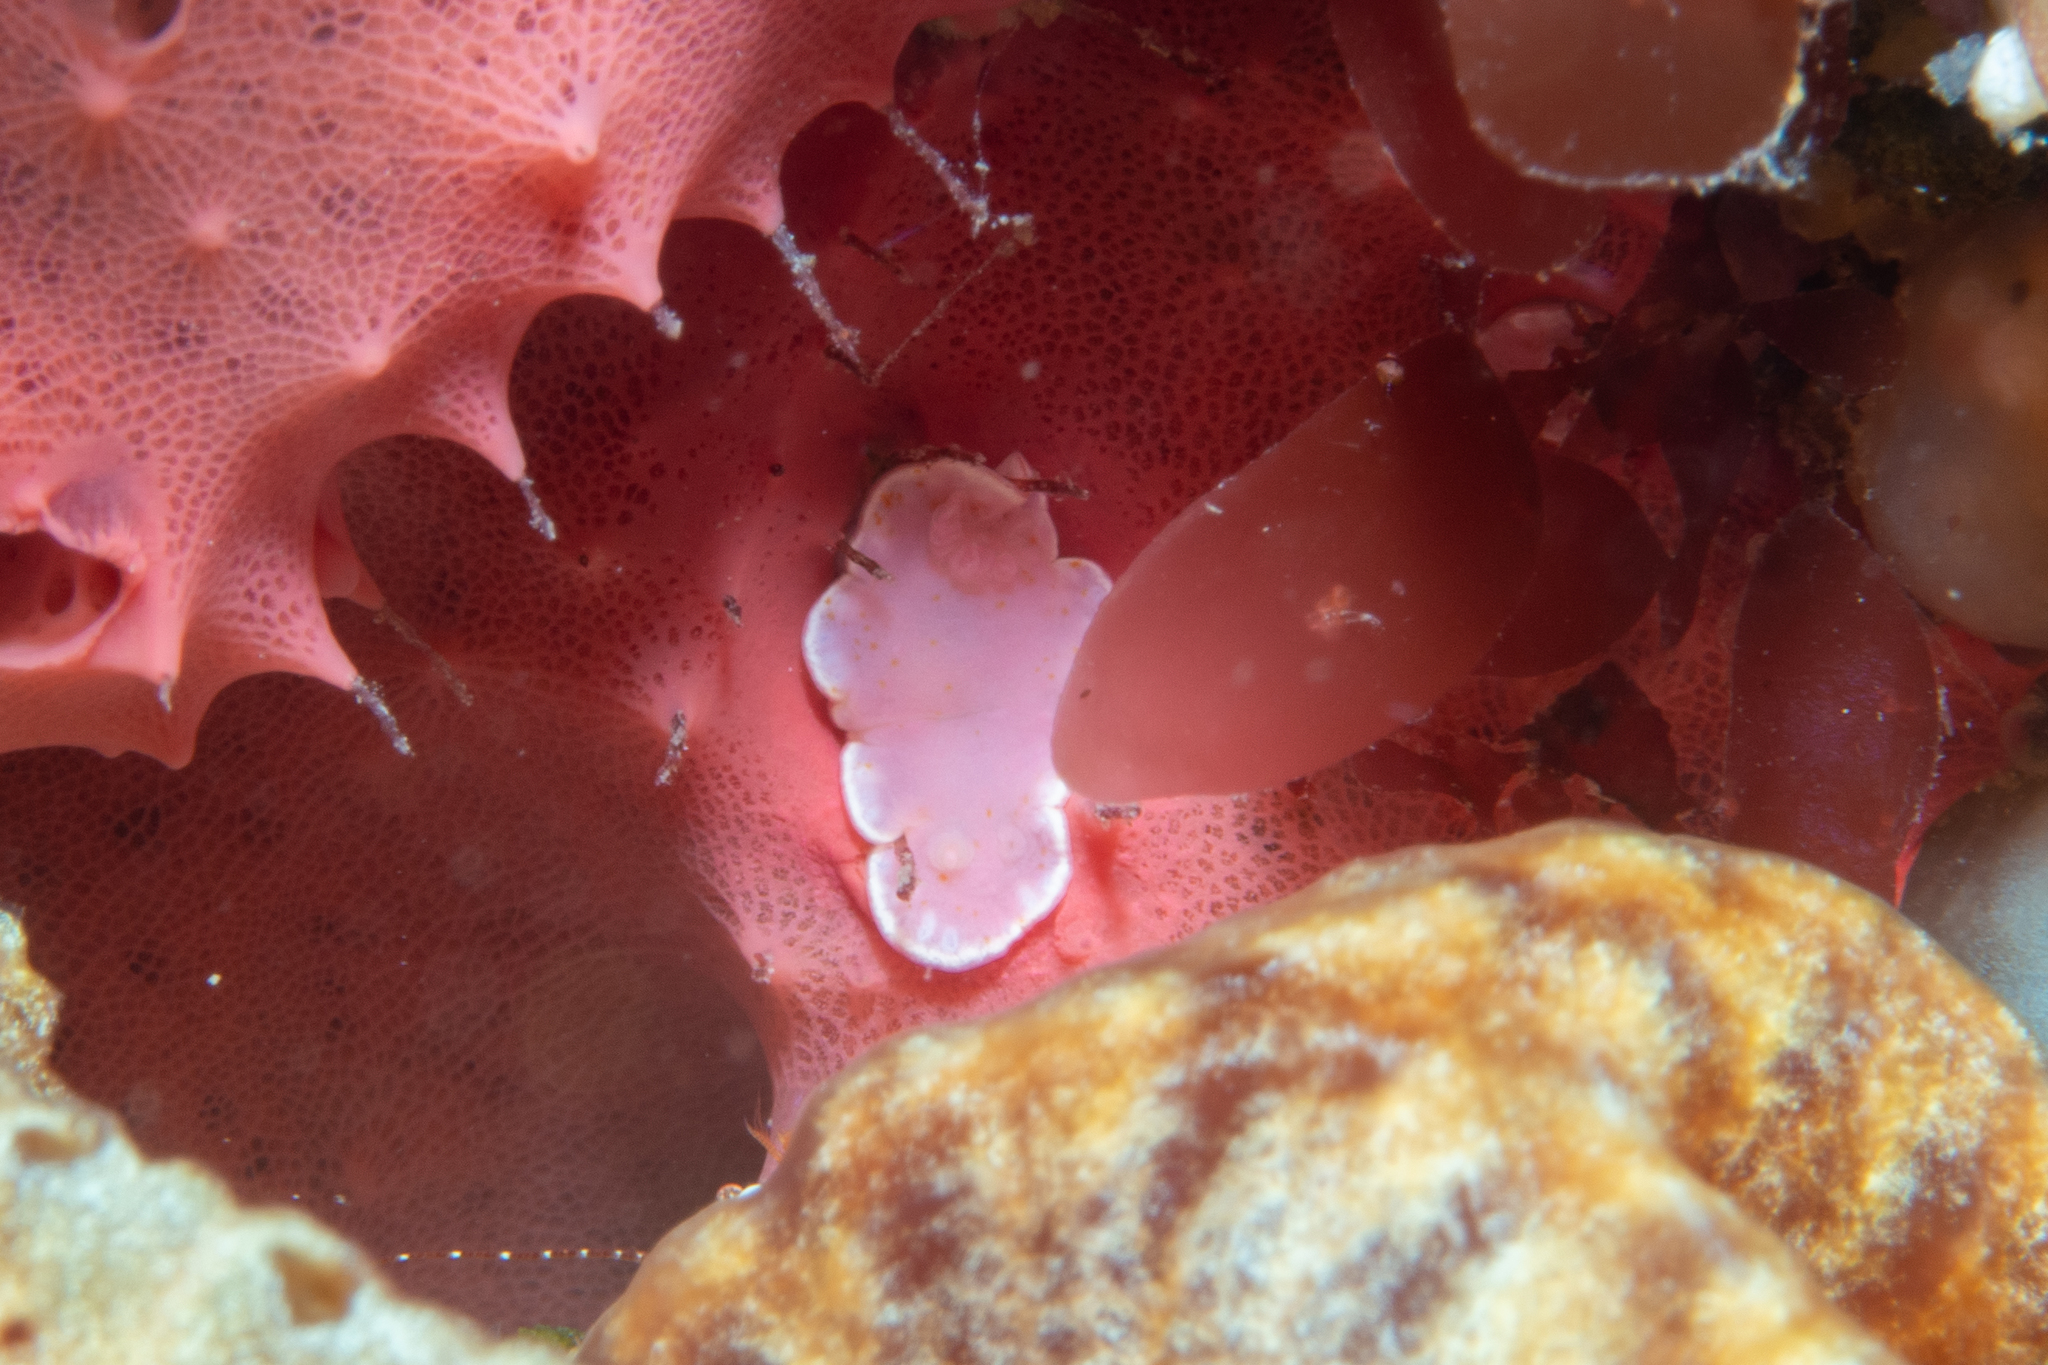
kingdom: Animalia
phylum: Mollusca
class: Gastropoda
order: Nudibranchia
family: Chromodorididae
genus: Verconia
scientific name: Verconia haliclona
